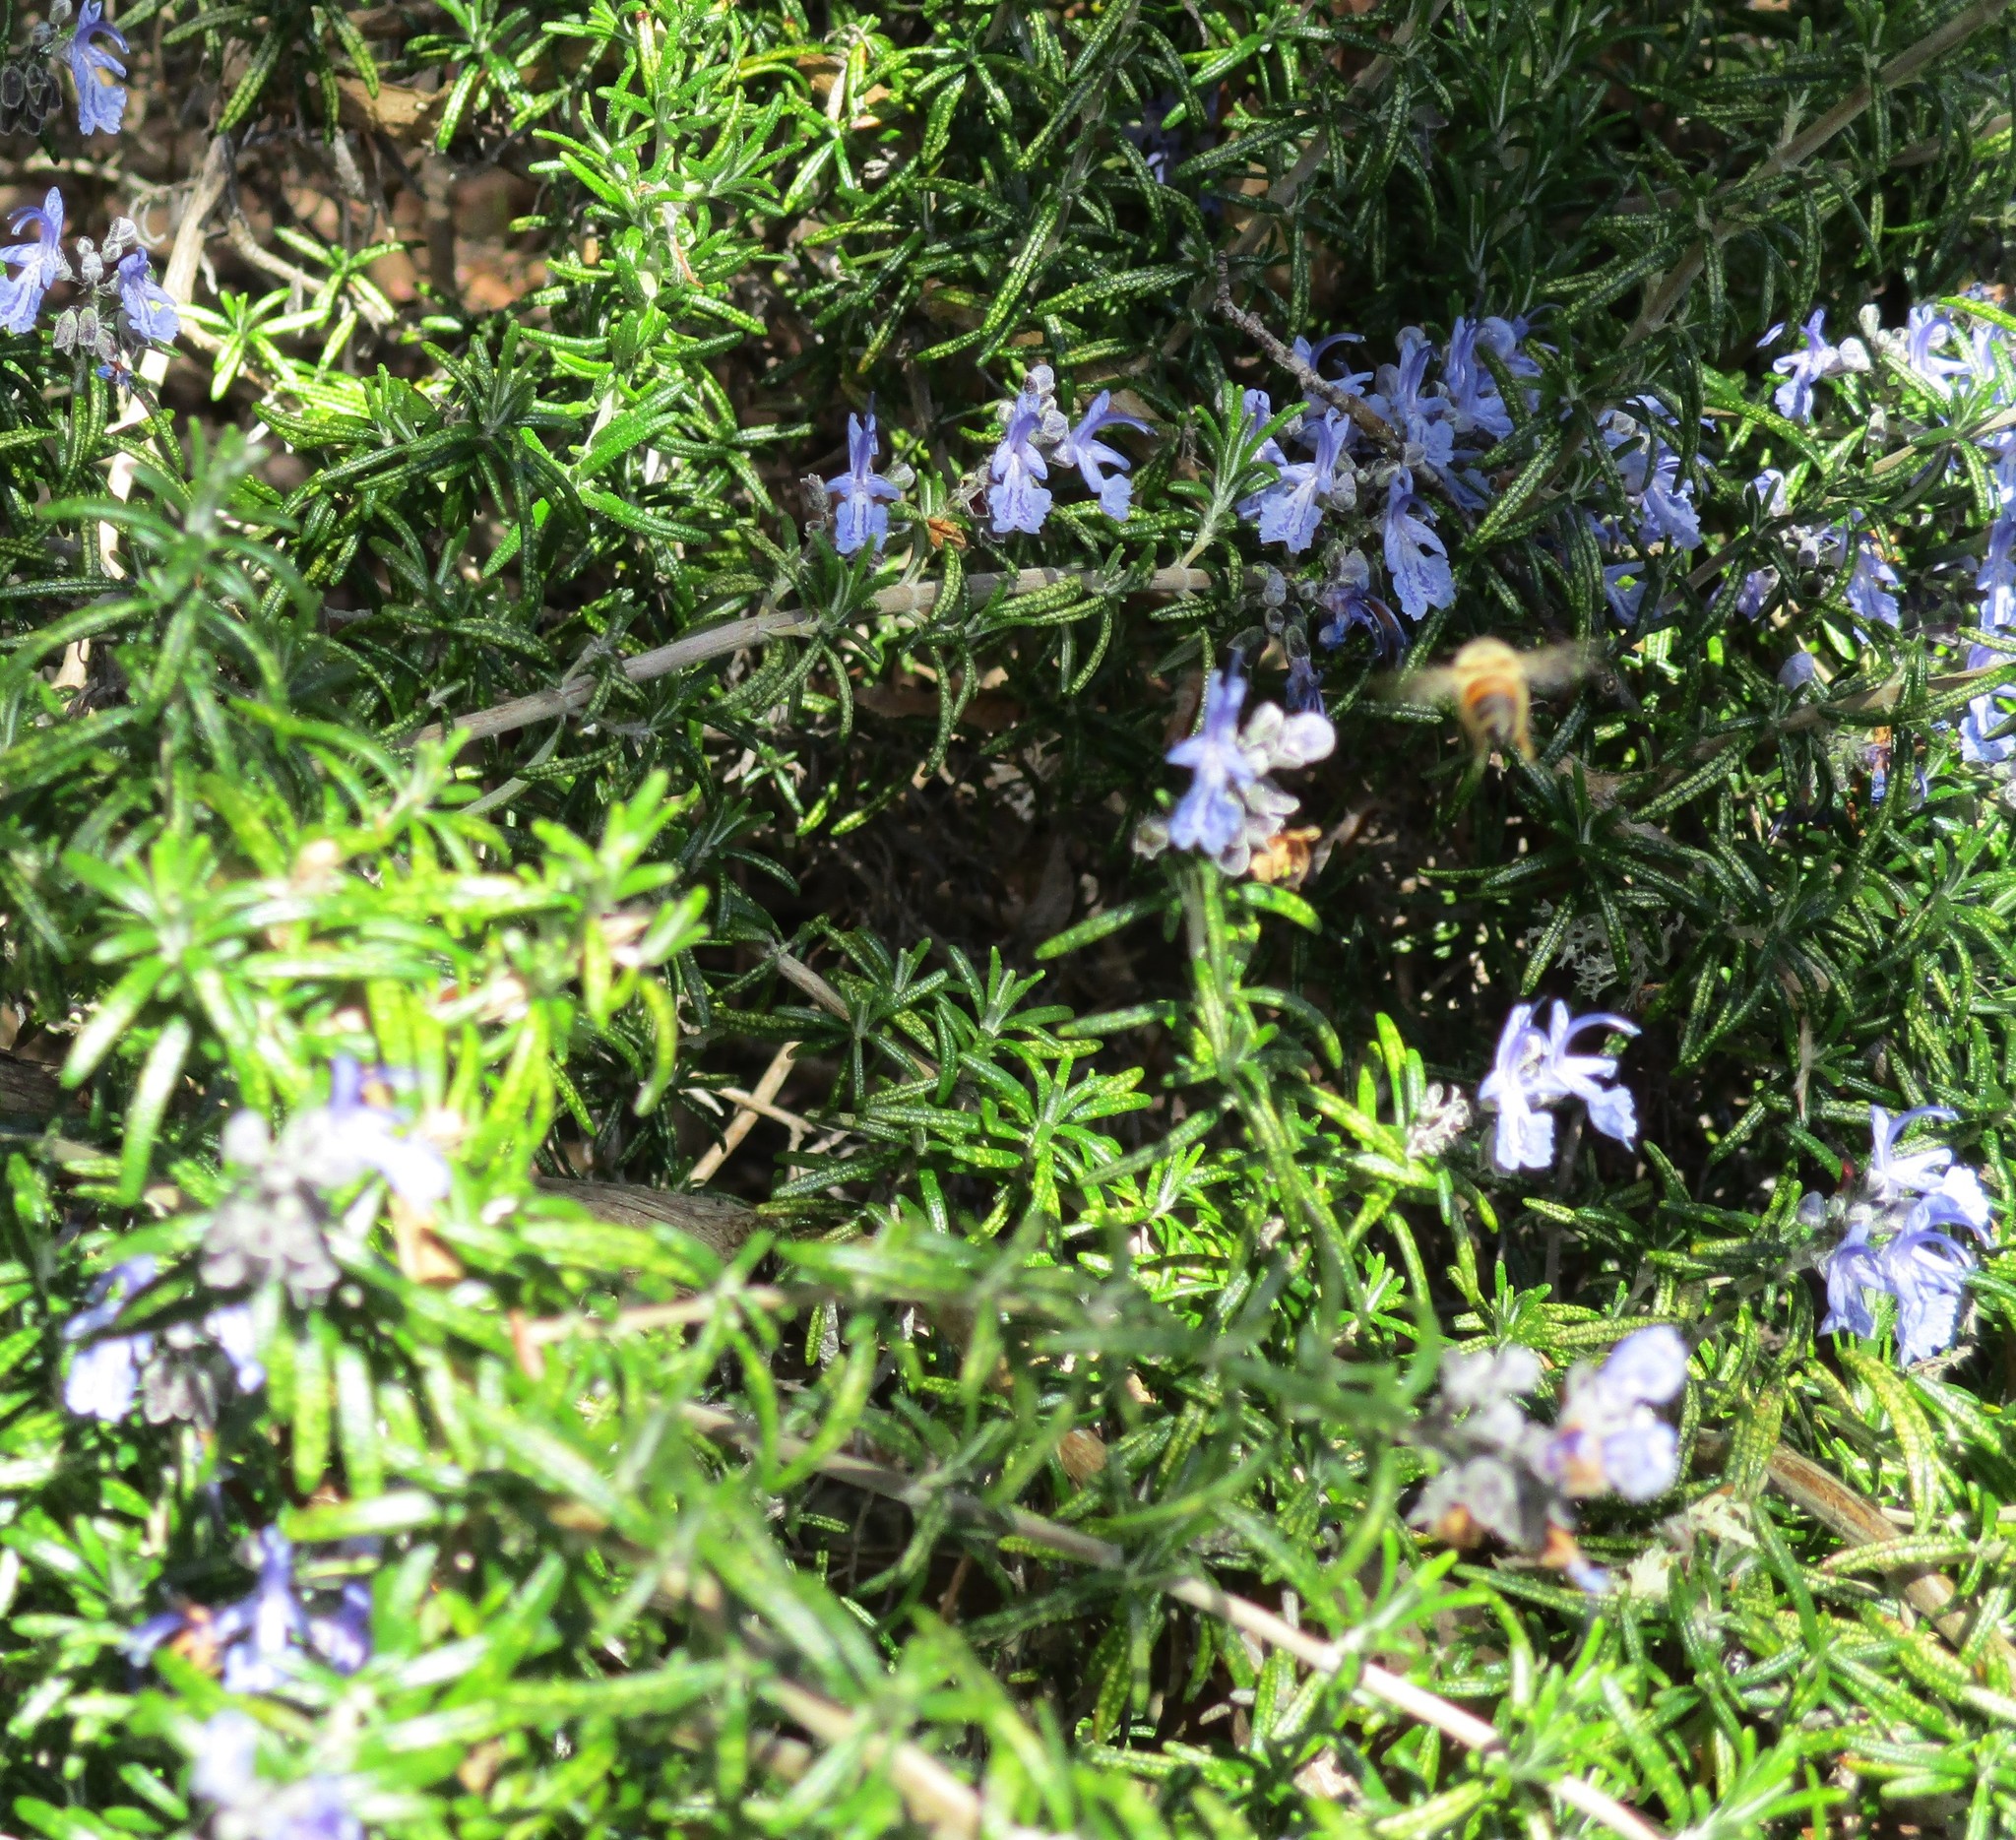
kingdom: Animalia
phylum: Arthropoda
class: Insecta
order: Hymenoptera
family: Apidae
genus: Apis
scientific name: Apis mellifera
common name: Honey bee
